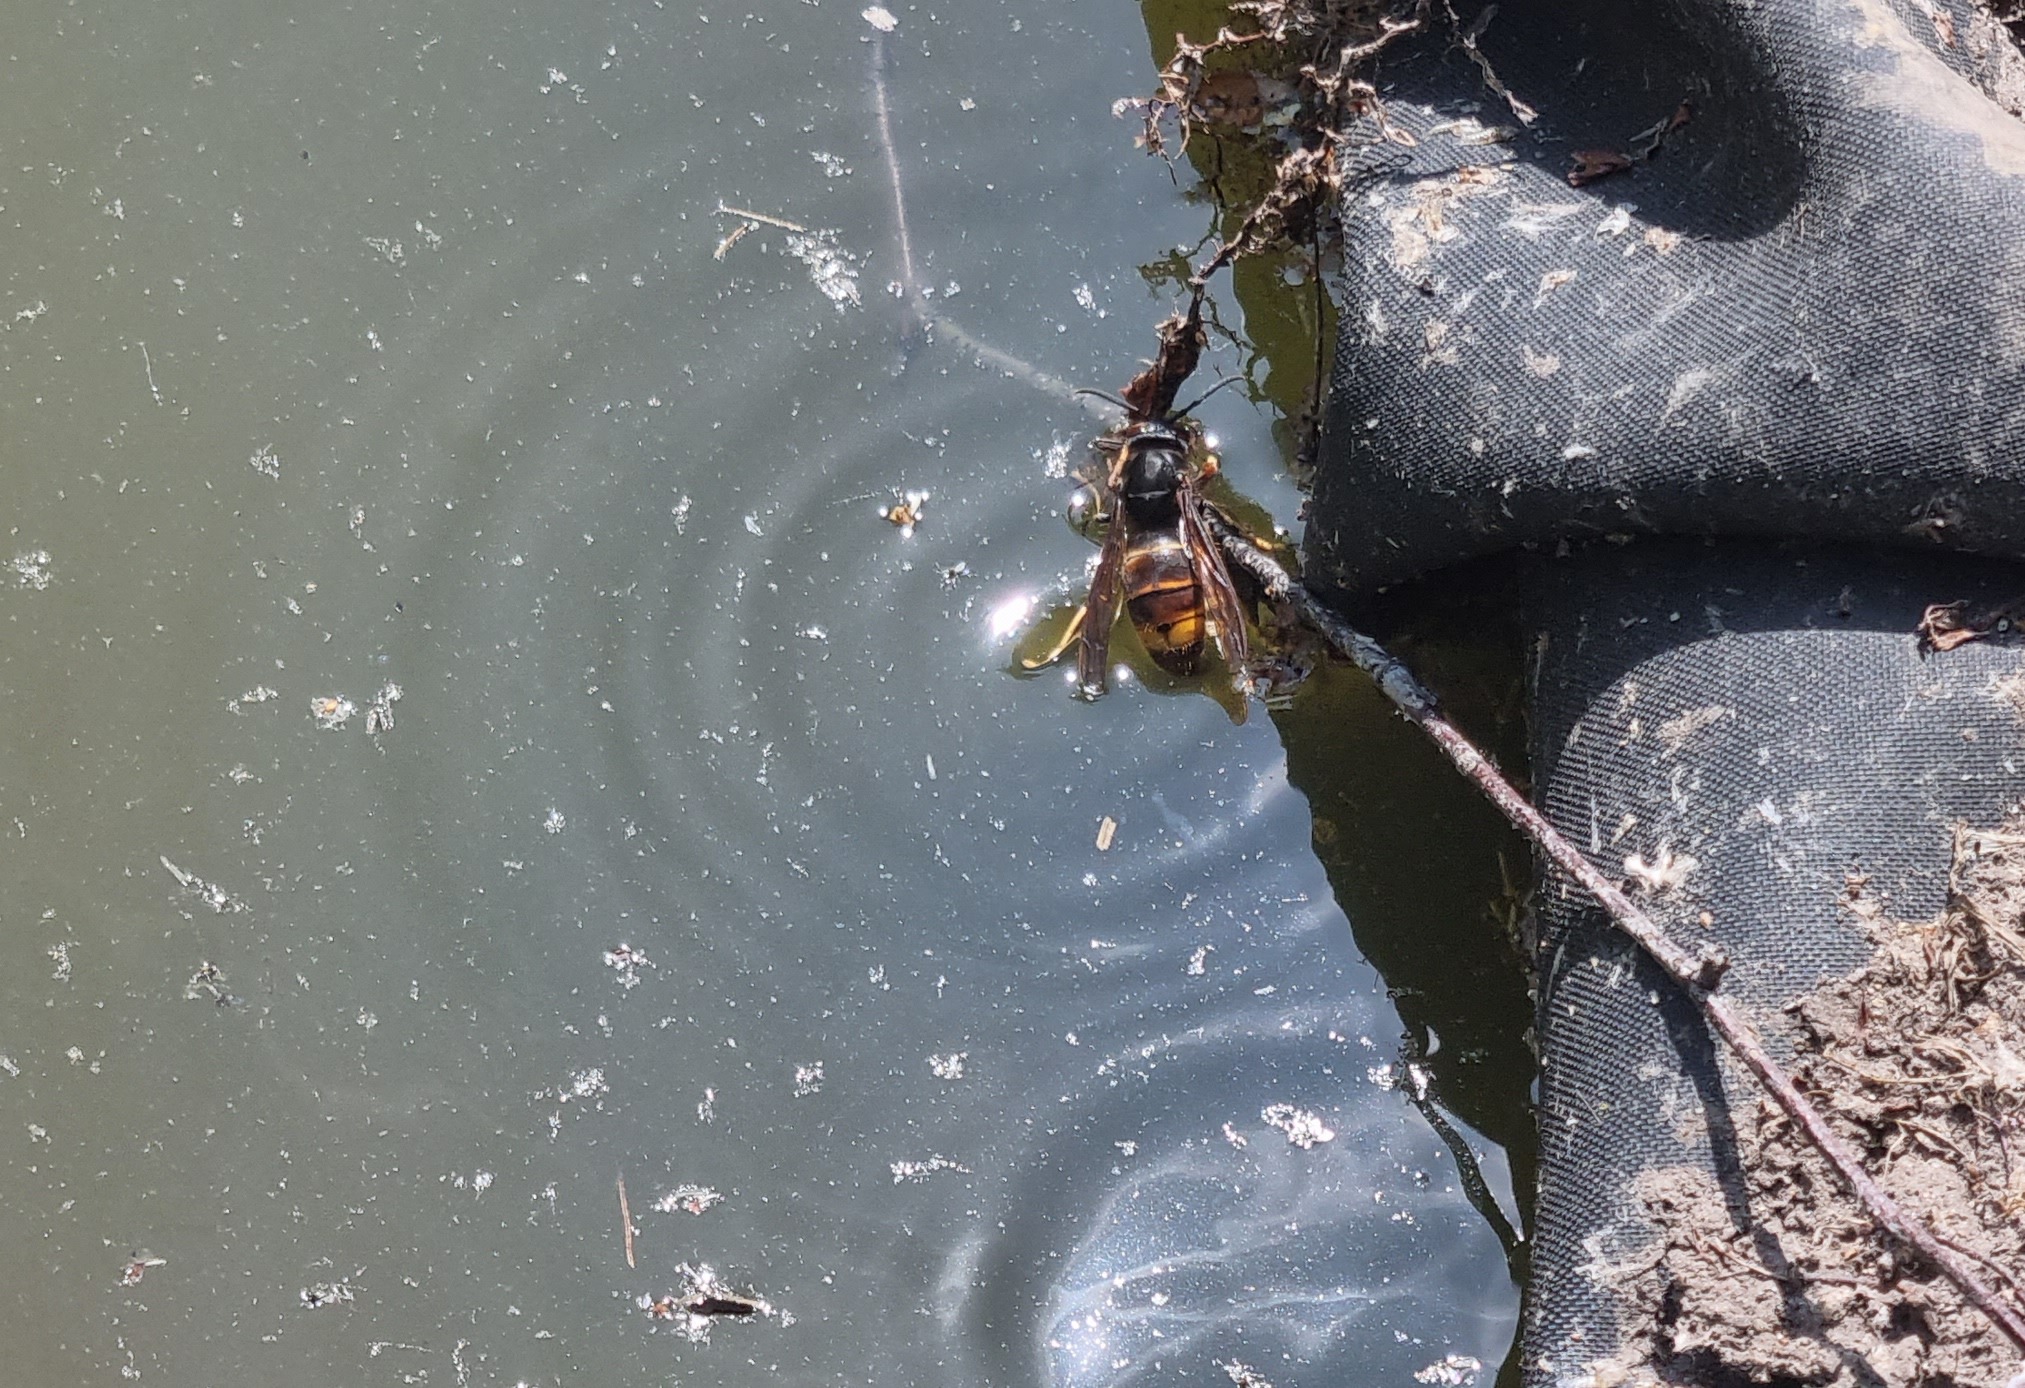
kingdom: Animalia
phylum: Arthropoda
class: Insecta
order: Hymenoptera
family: Vespidae
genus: Vespa
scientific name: Vespa velutina
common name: Asian hornet
